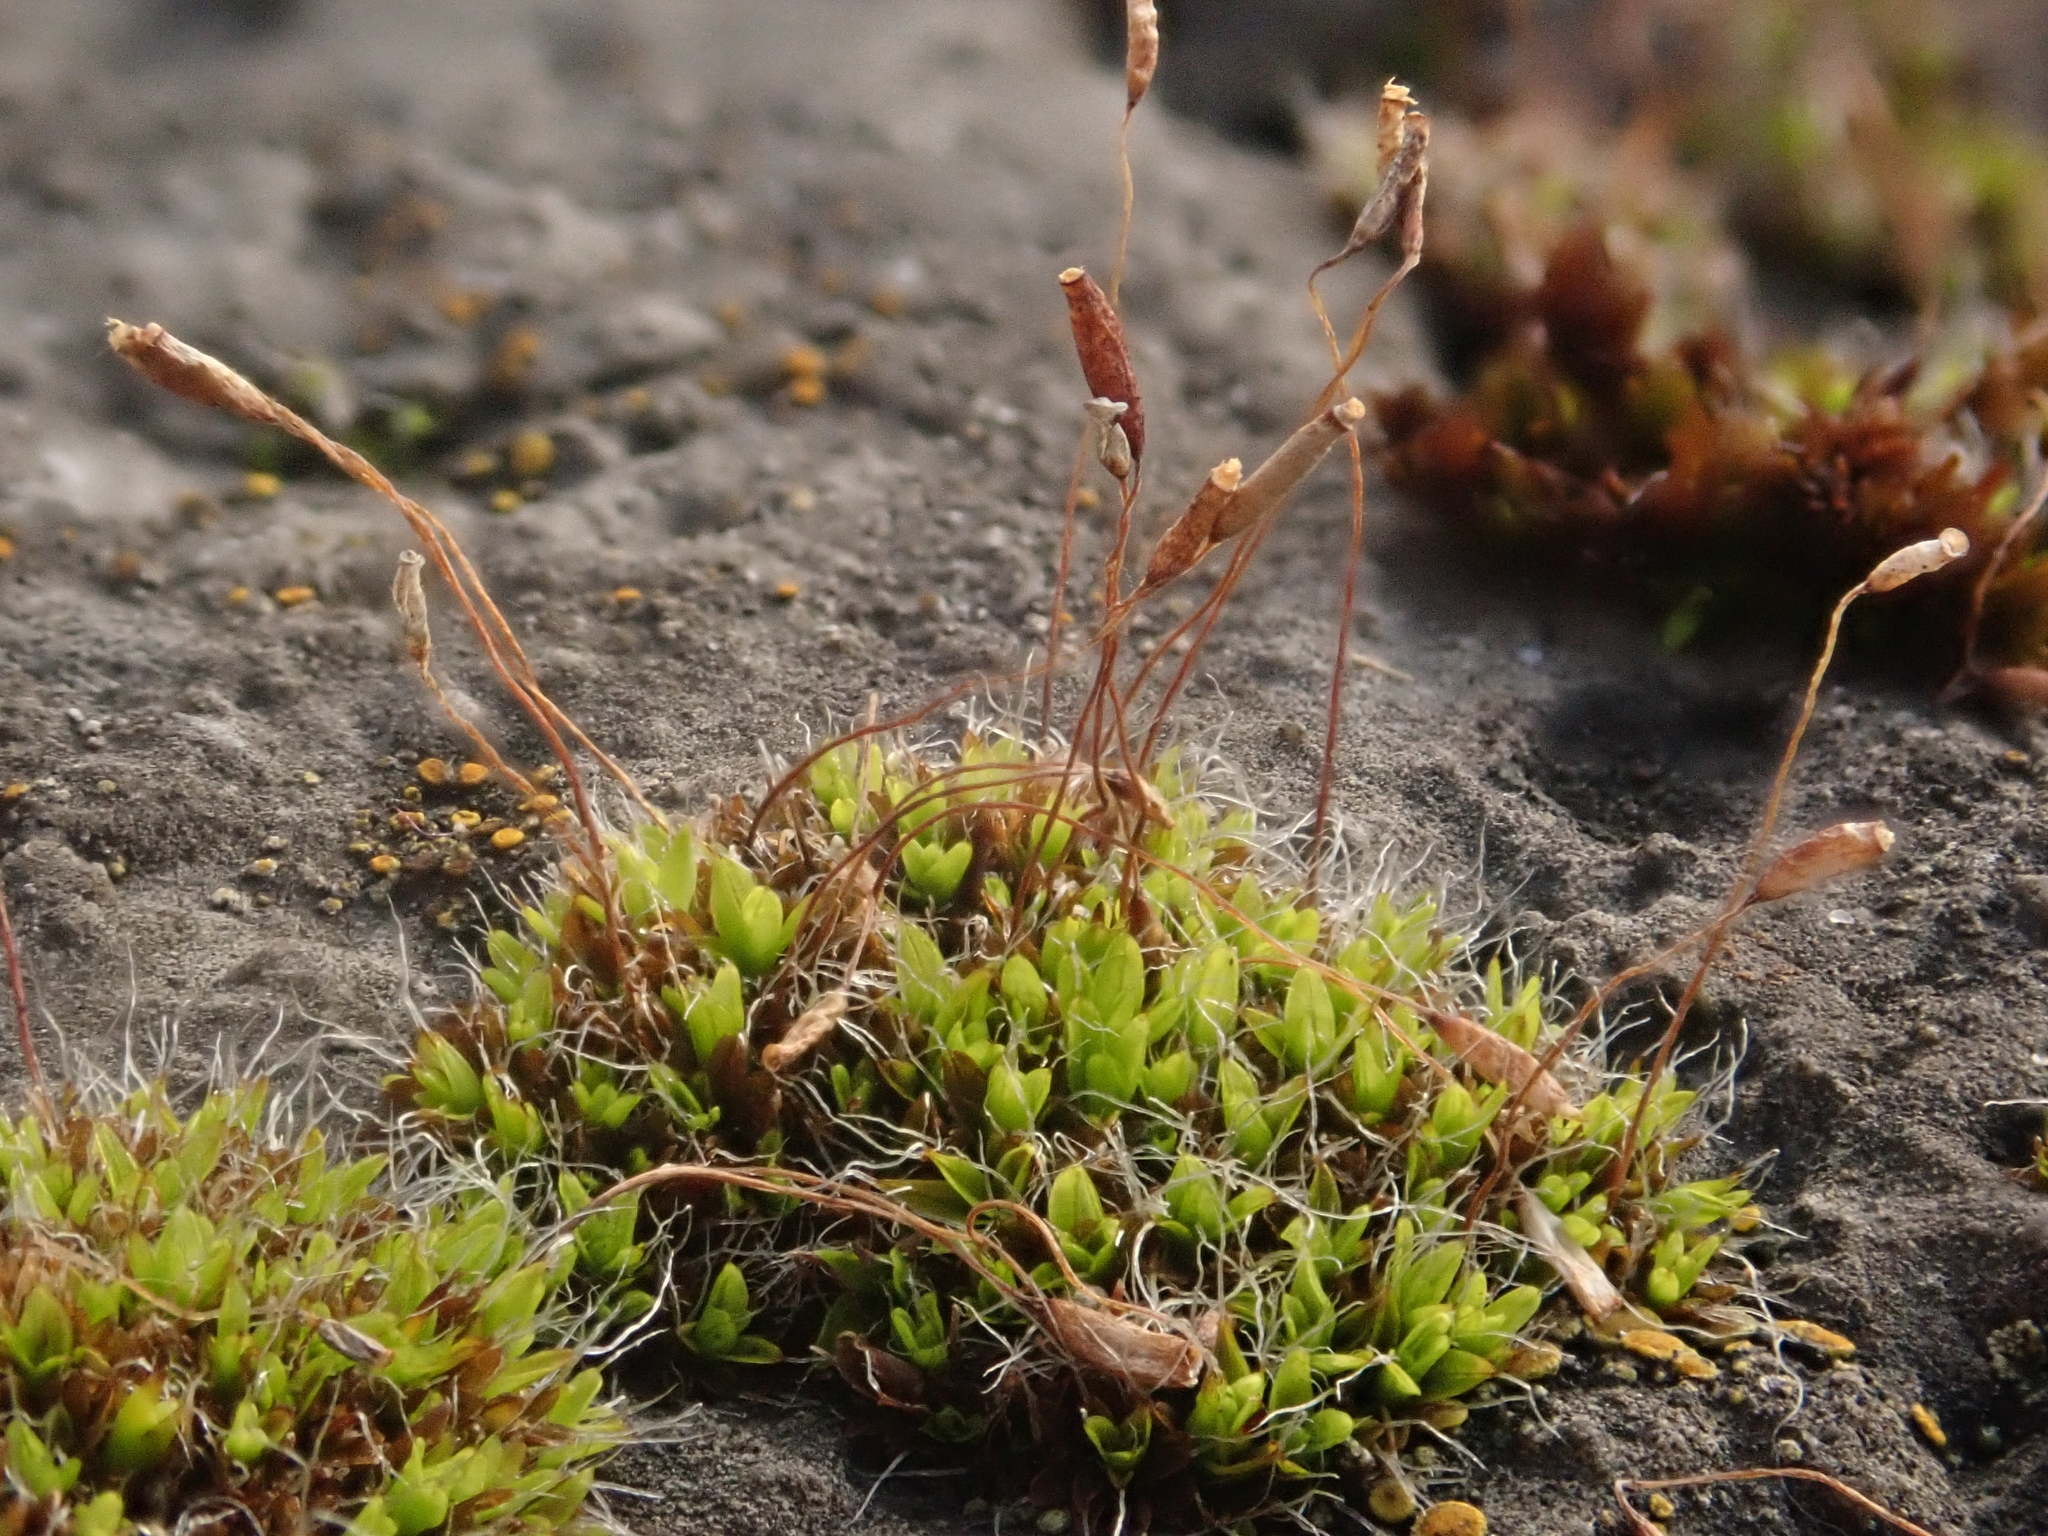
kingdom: Plantae
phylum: Bryophyta
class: Bryopsida
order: Pottiales
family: Pottiaceae
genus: Tortula
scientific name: Tortula muralis
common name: Wall screw-moss
